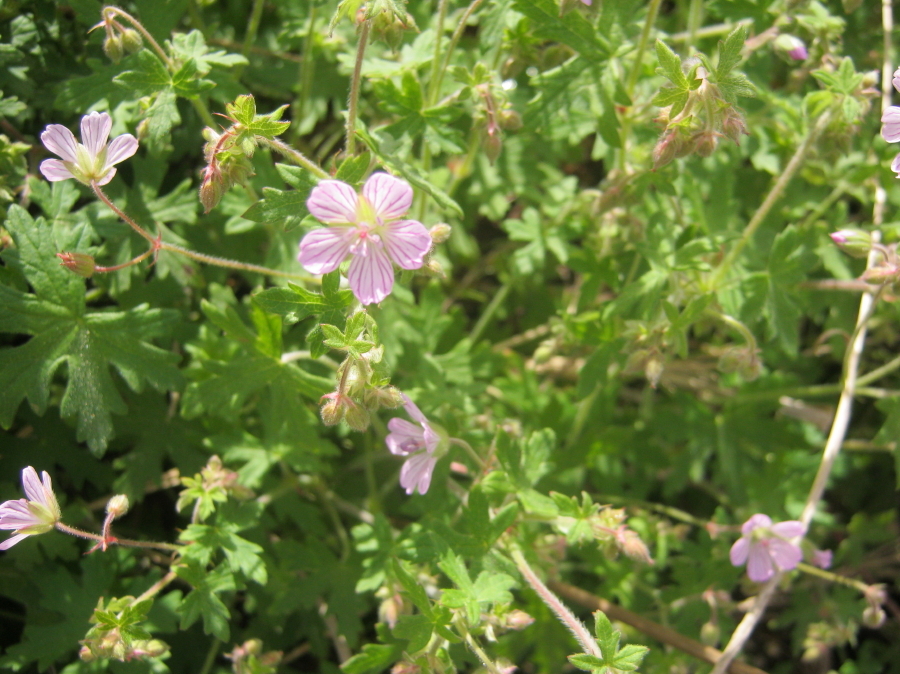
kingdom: Plantae
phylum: Tracheophyta
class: Magnoliopsida
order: Geraniales
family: Geraniaceae
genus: Geranium
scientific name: Geranium ornithopodon
